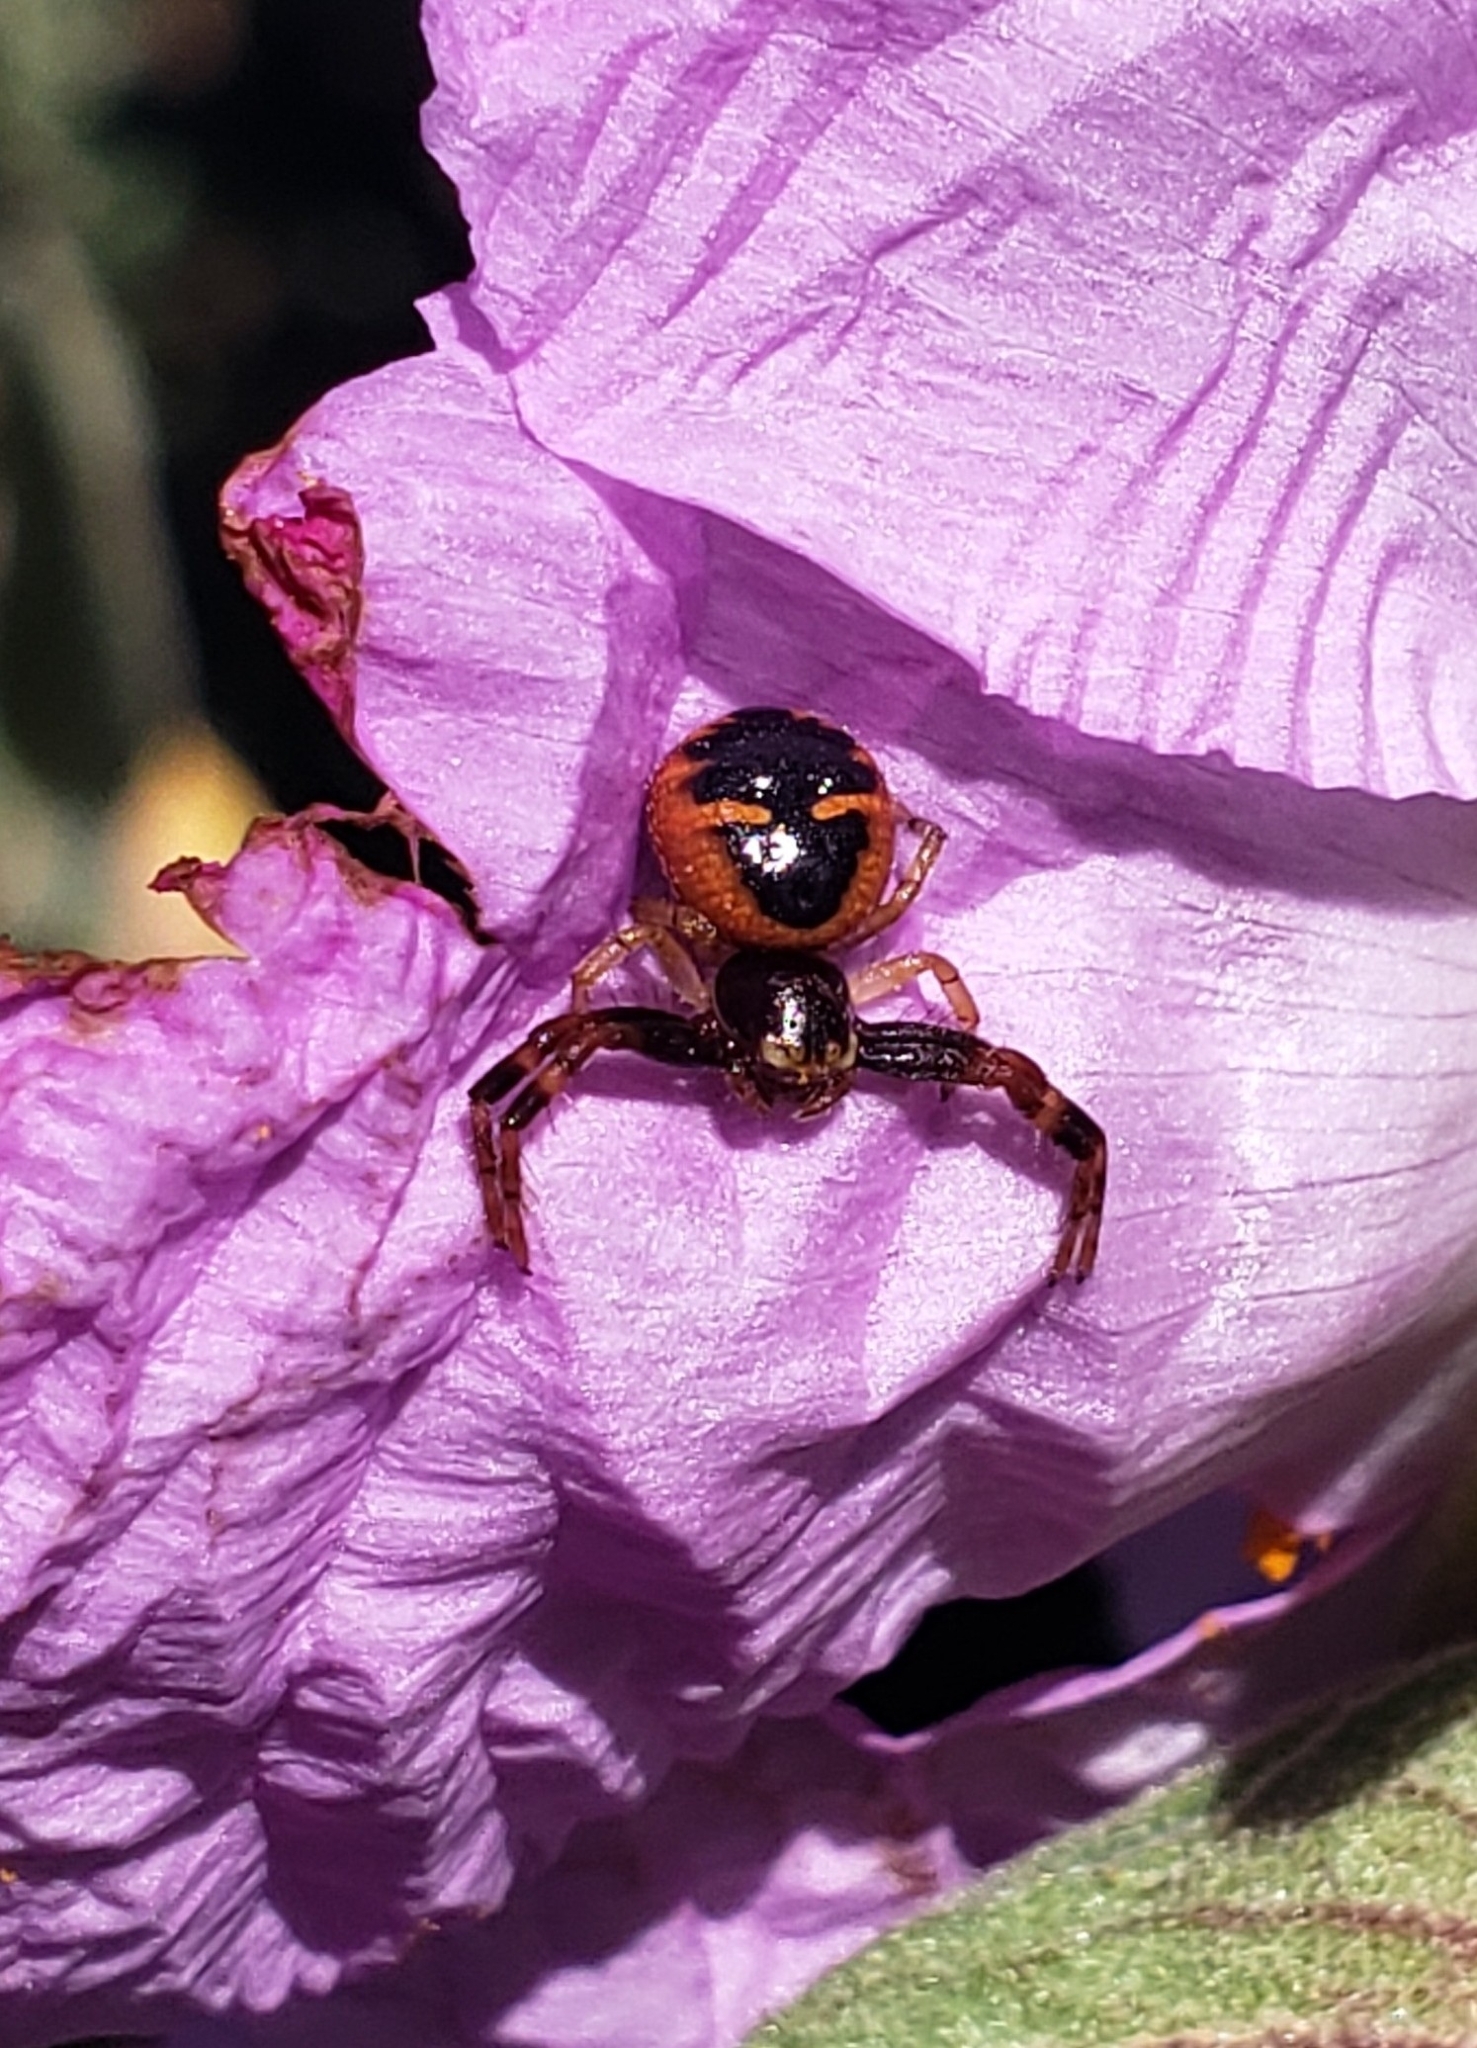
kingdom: Animalia
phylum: Arthropoda
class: Arachnida
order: Araneae
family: Thomisidae
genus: Synema
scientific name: Synema globosum
